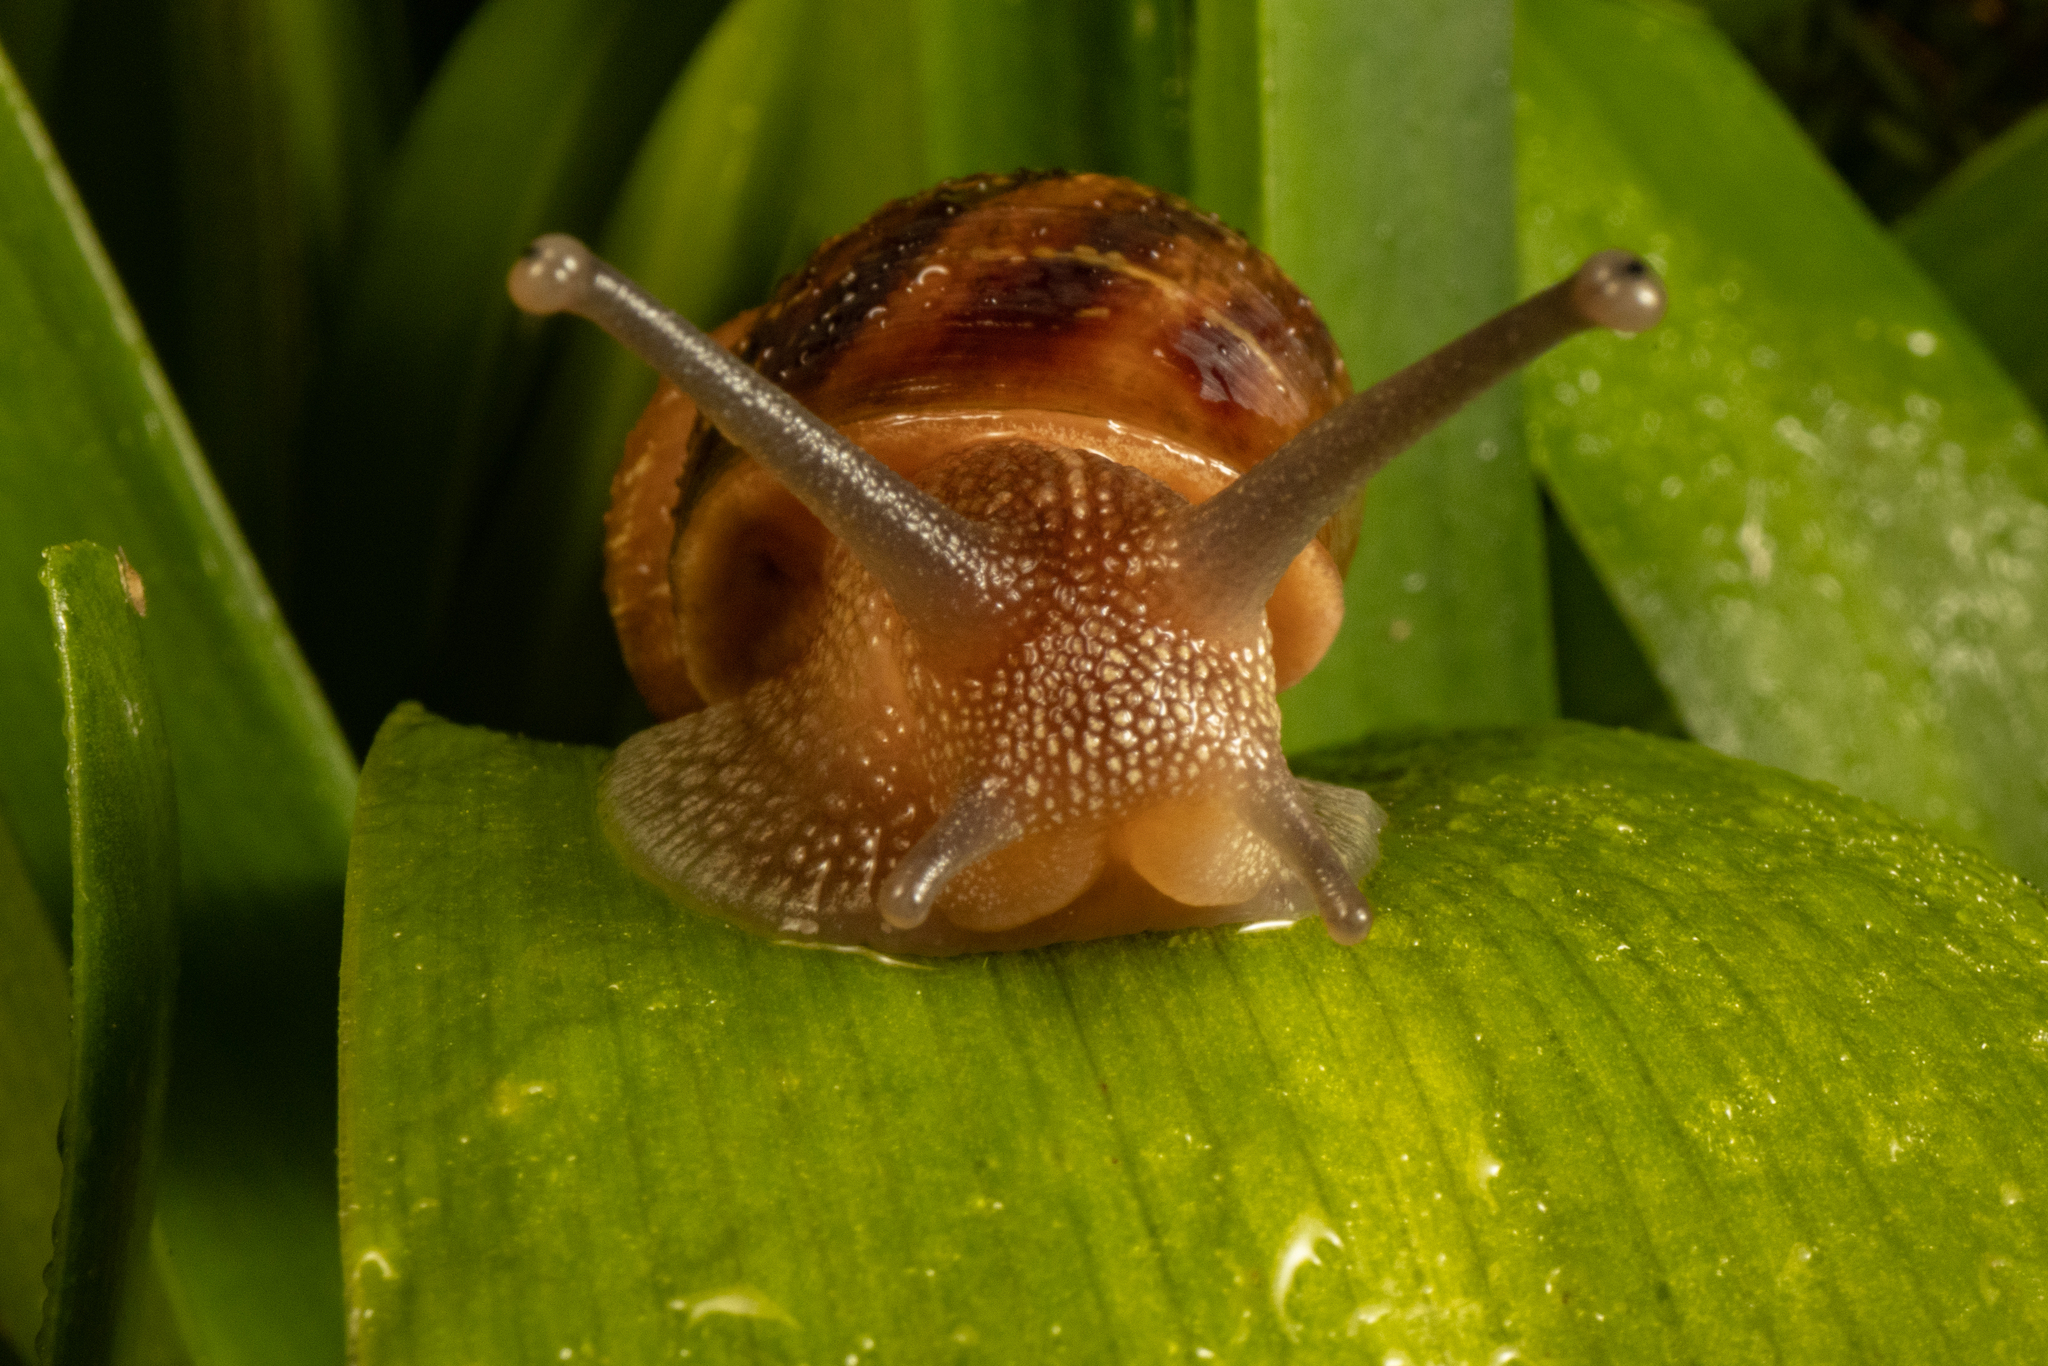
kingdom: Animalia
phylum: Mollusca
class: Gastropoda
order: Stylommatophora
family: Helicidae
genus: Cornu
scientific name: Cornu aspersum
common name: Brown garden snail
